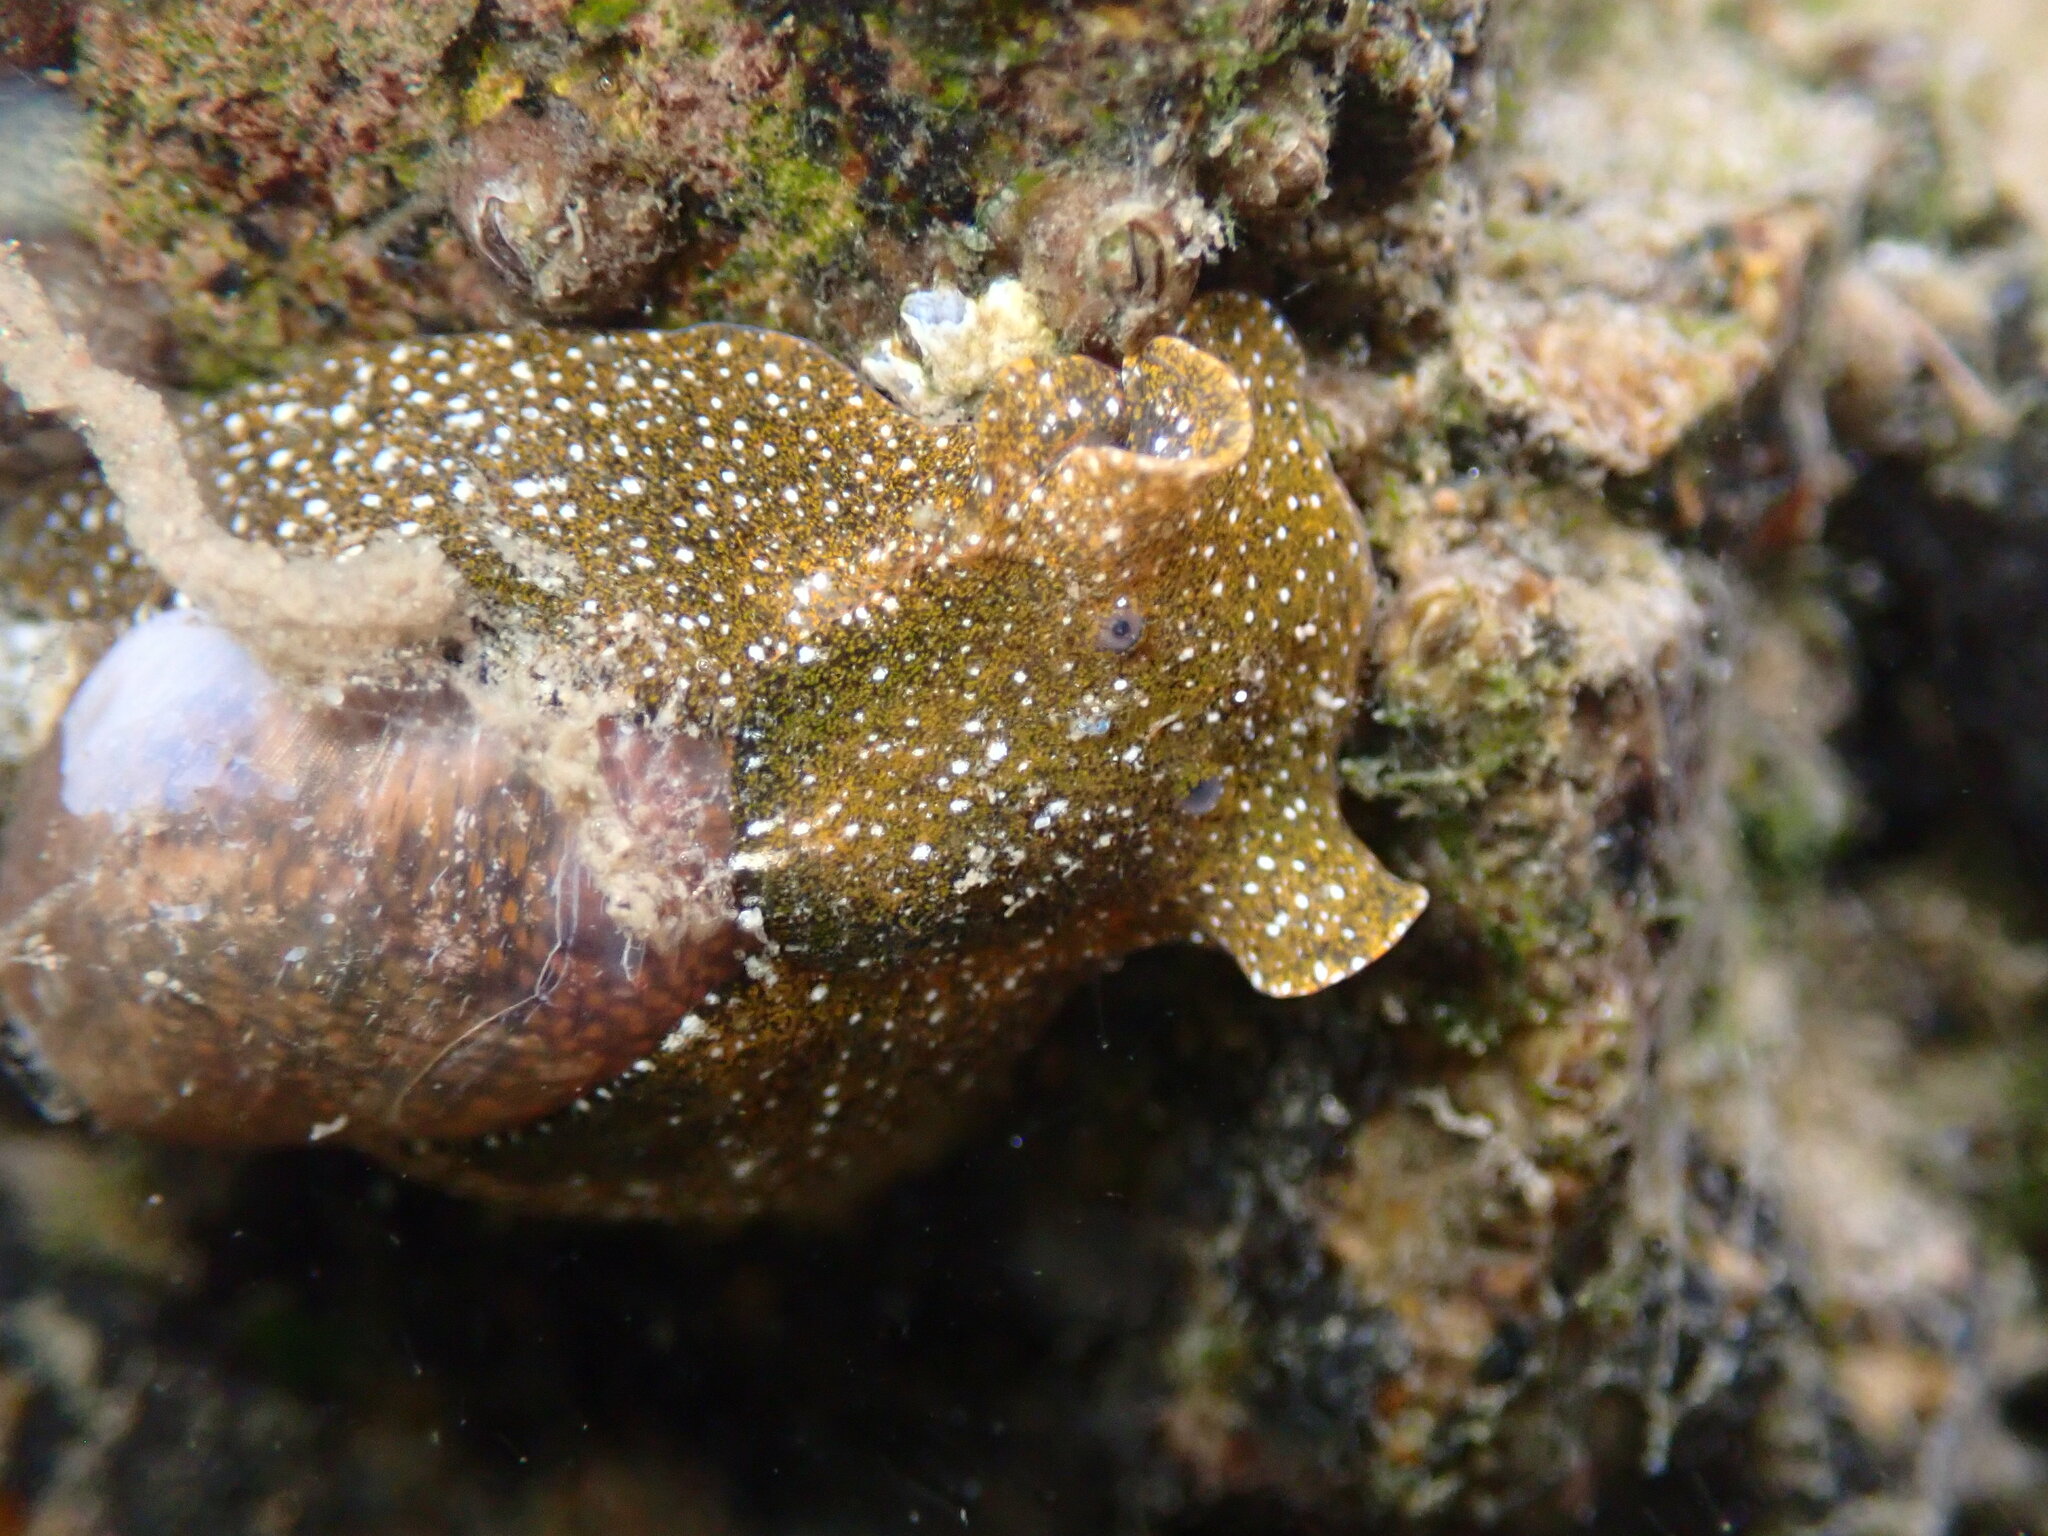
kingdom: Animalia
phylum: Mollusca
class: Gastropoda
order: Cephalaspidea
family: Haminoeidae
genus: Haminoea
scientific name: Haminoea virescens
